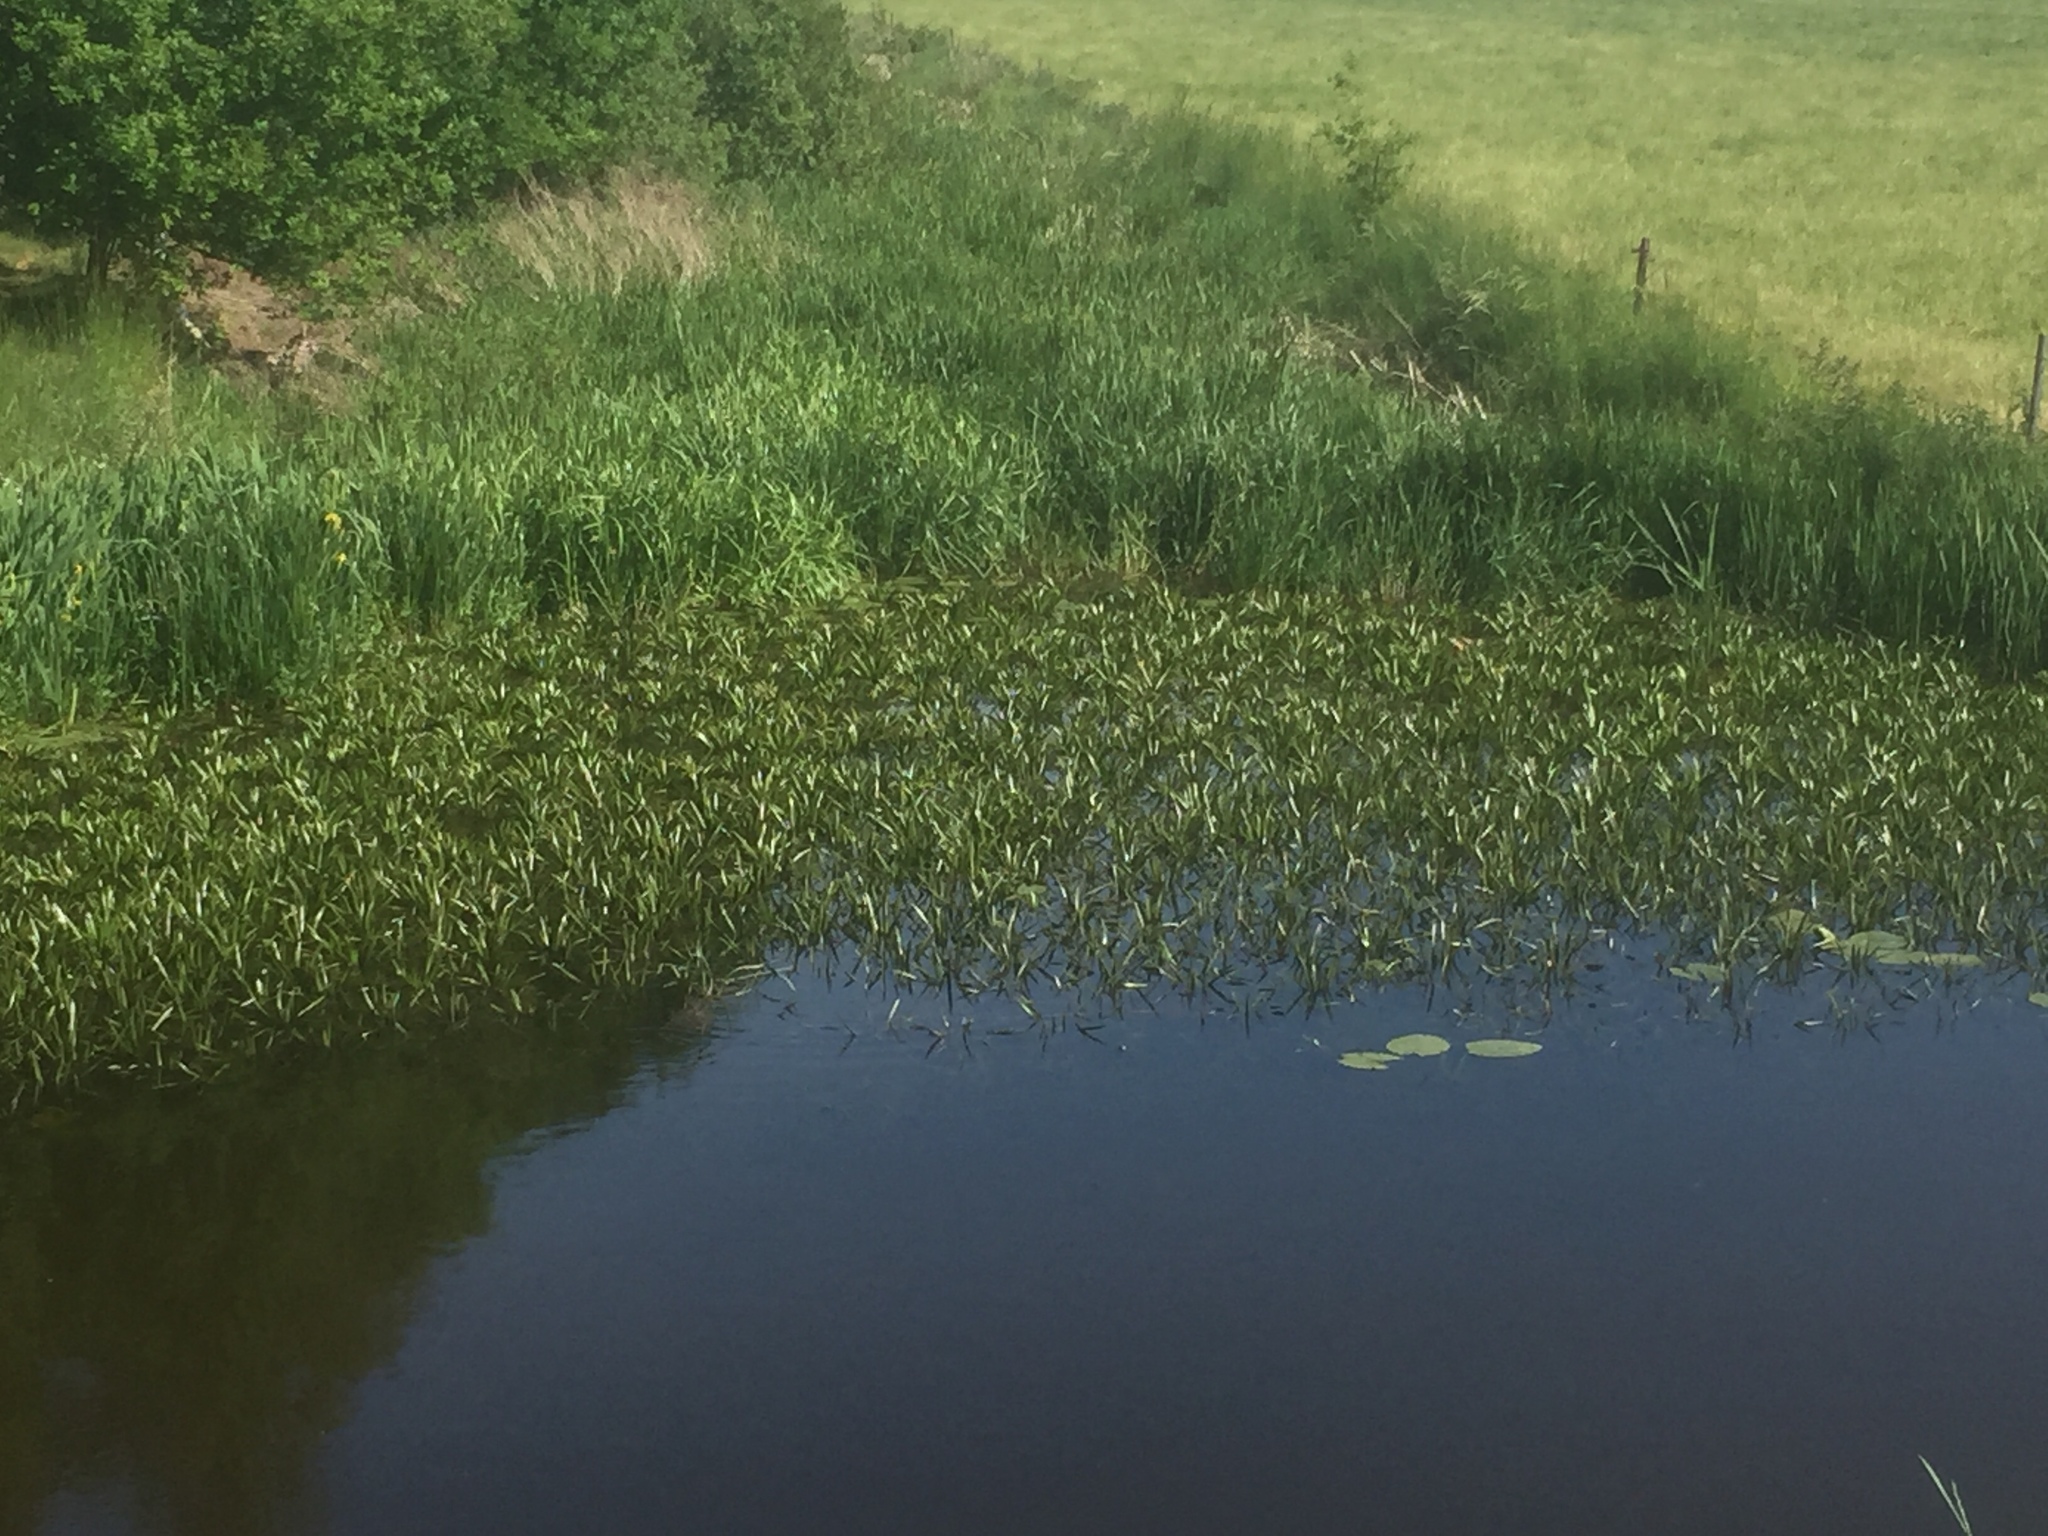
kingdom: Plantae
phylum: Tracheophyta
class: Liliopsida
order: Alismatales
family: Hydrocharitaceae
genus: Stratiotes
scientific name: Stratiotes aloides
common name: Water-soldier
